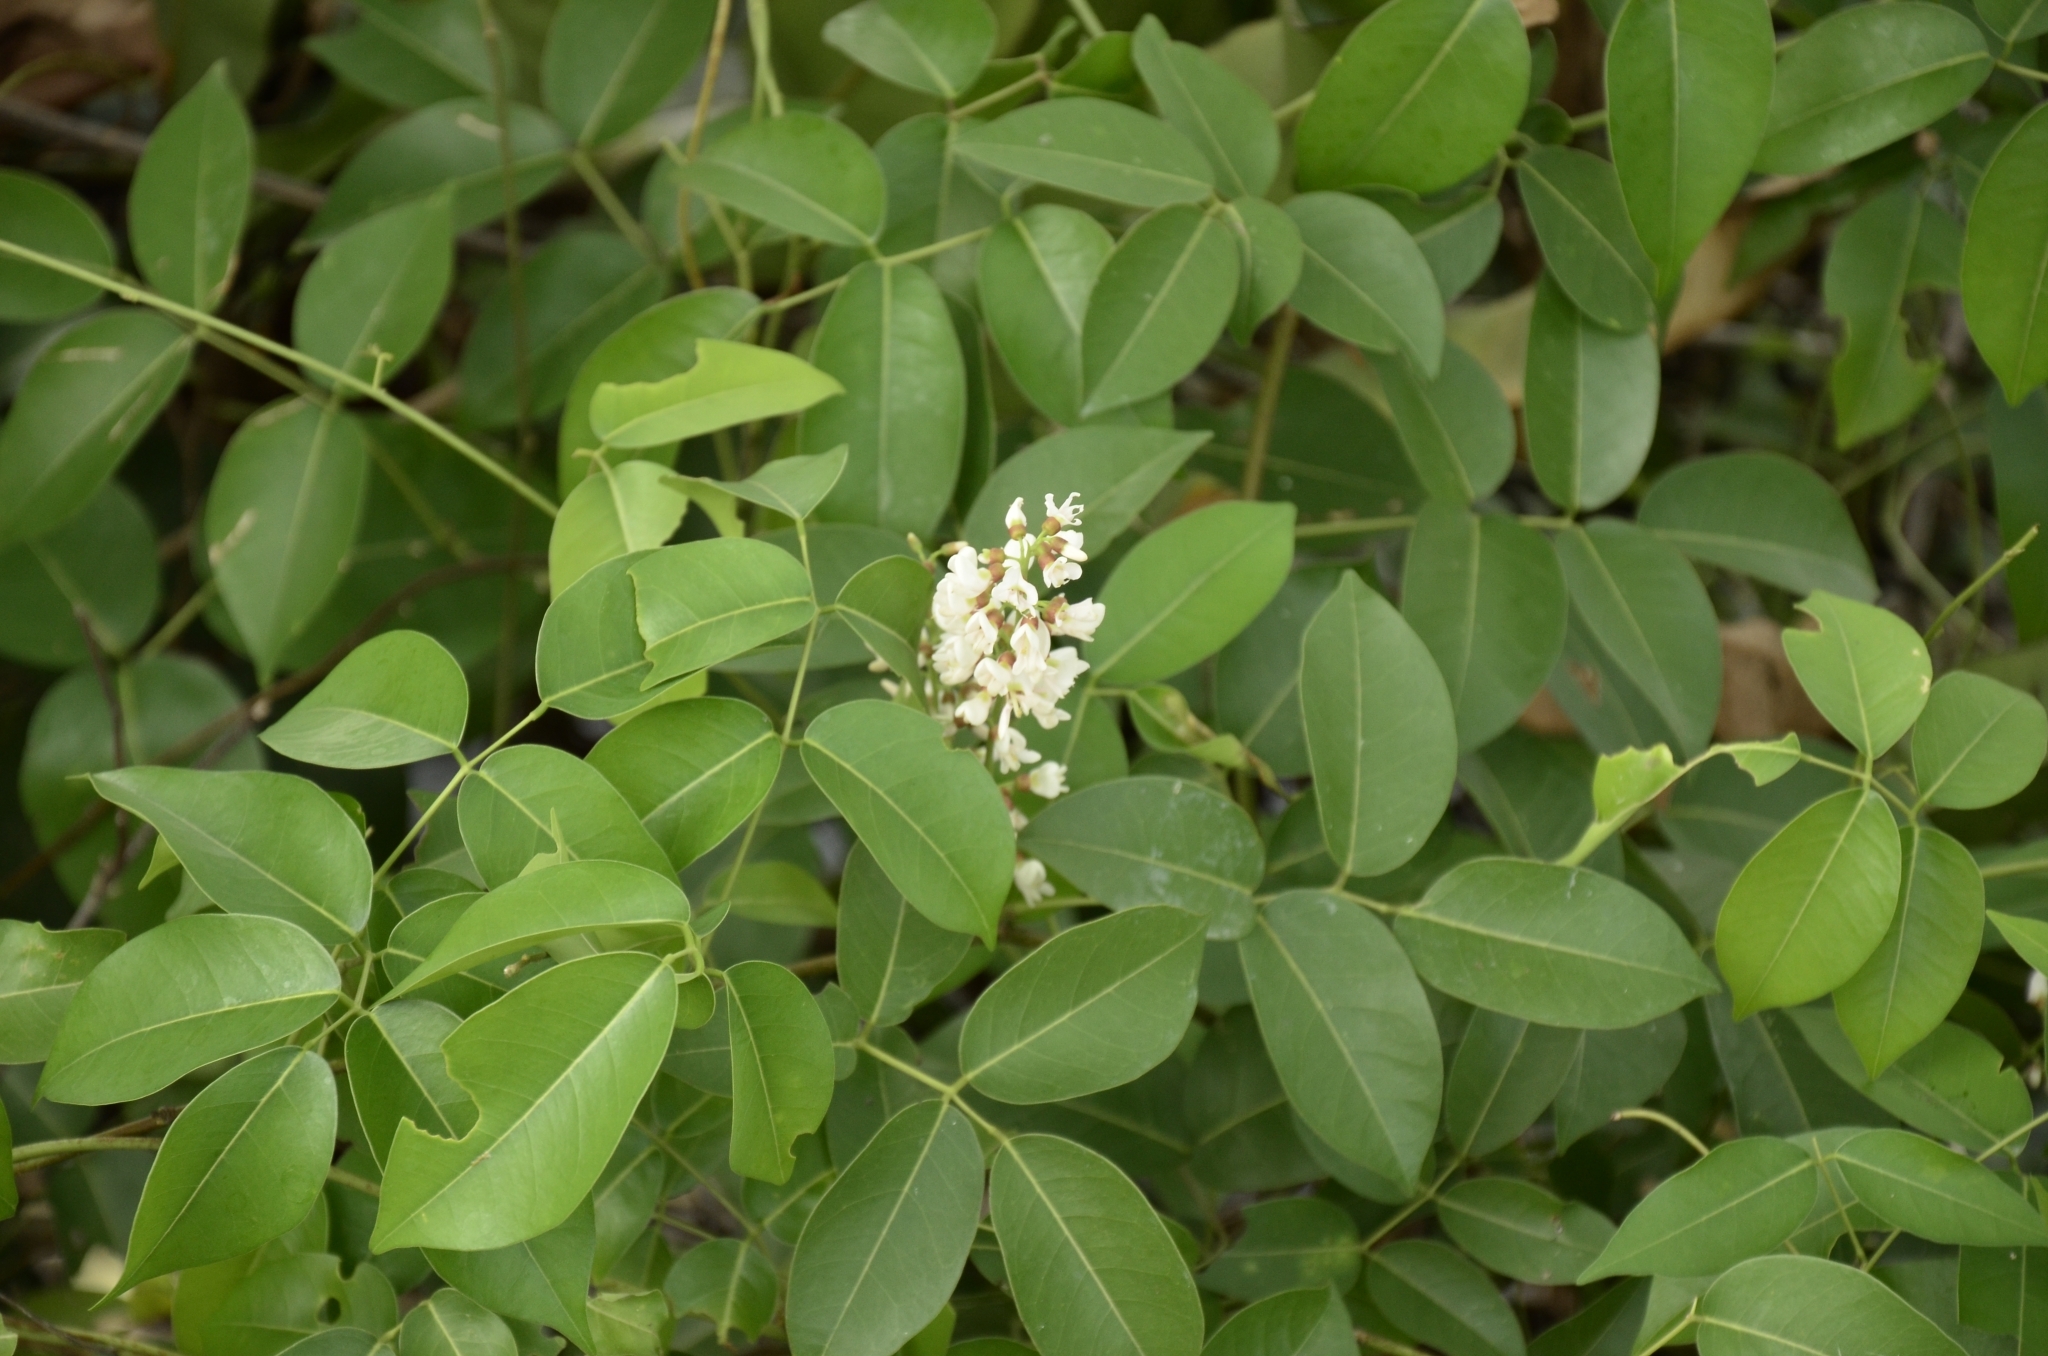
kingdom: Plantae
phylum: Tracheophyta
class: Magnoliopsida
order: Fabales
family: Fabaceae
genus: Derris
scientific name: Derris trifoliata
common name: Three-leaf derris
